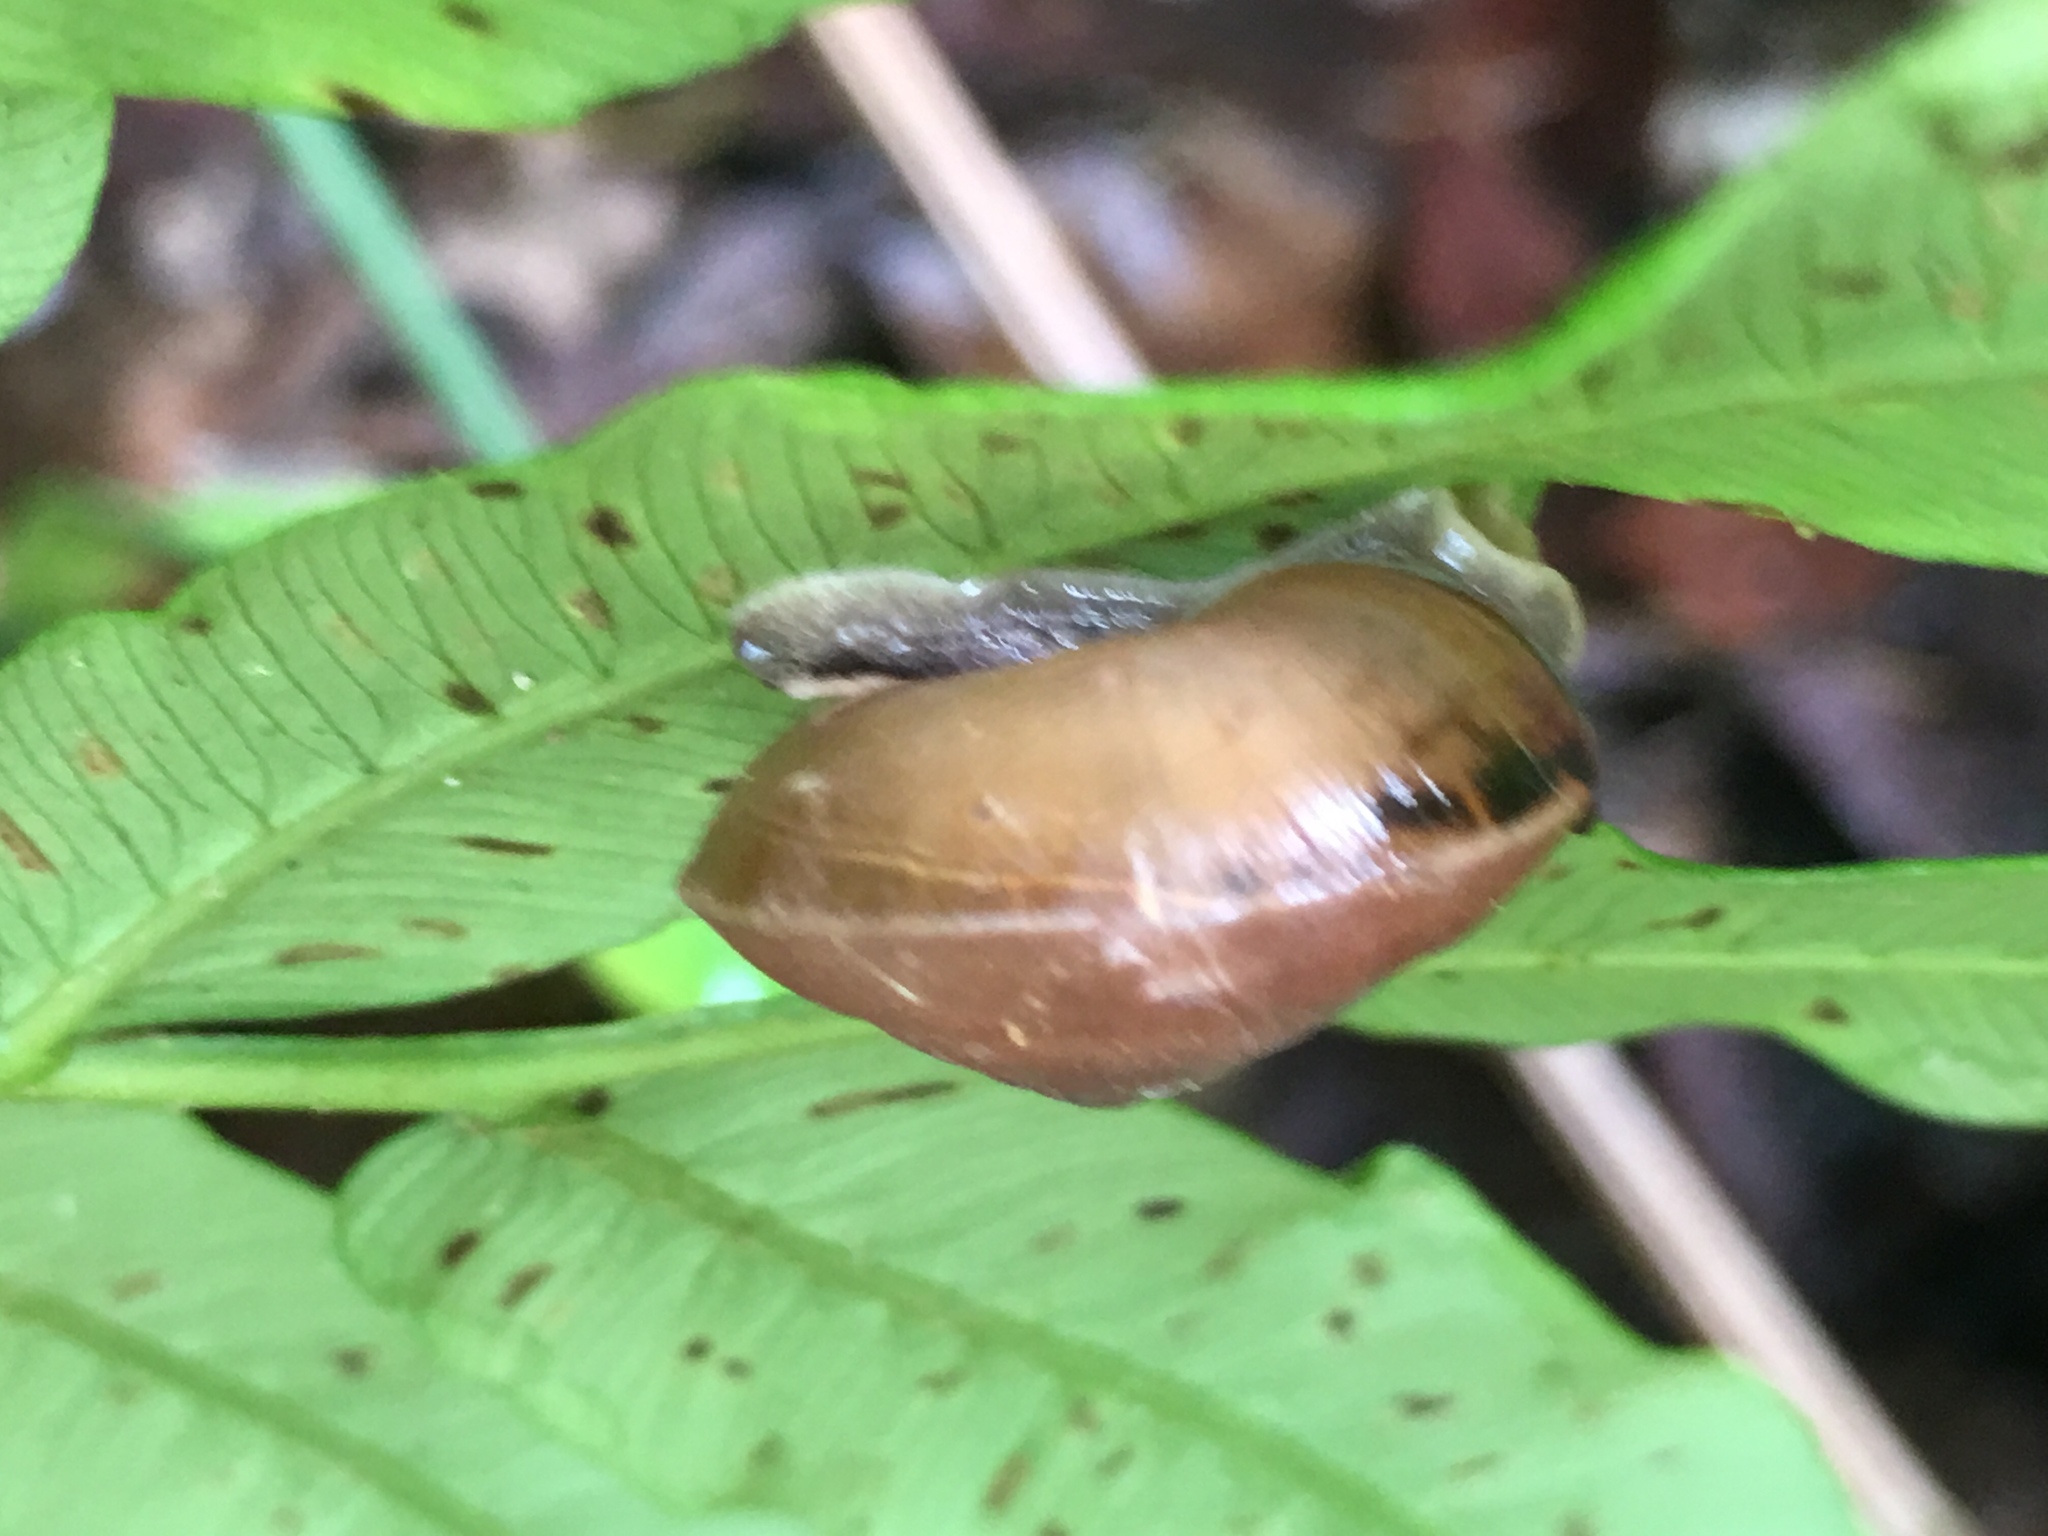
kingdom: Animalia
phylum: Mollusca
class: Gastropoda
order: Stylommatophora
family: Ariophantidae
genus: Hemiplecta
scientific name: Hemiplecta cymatium
